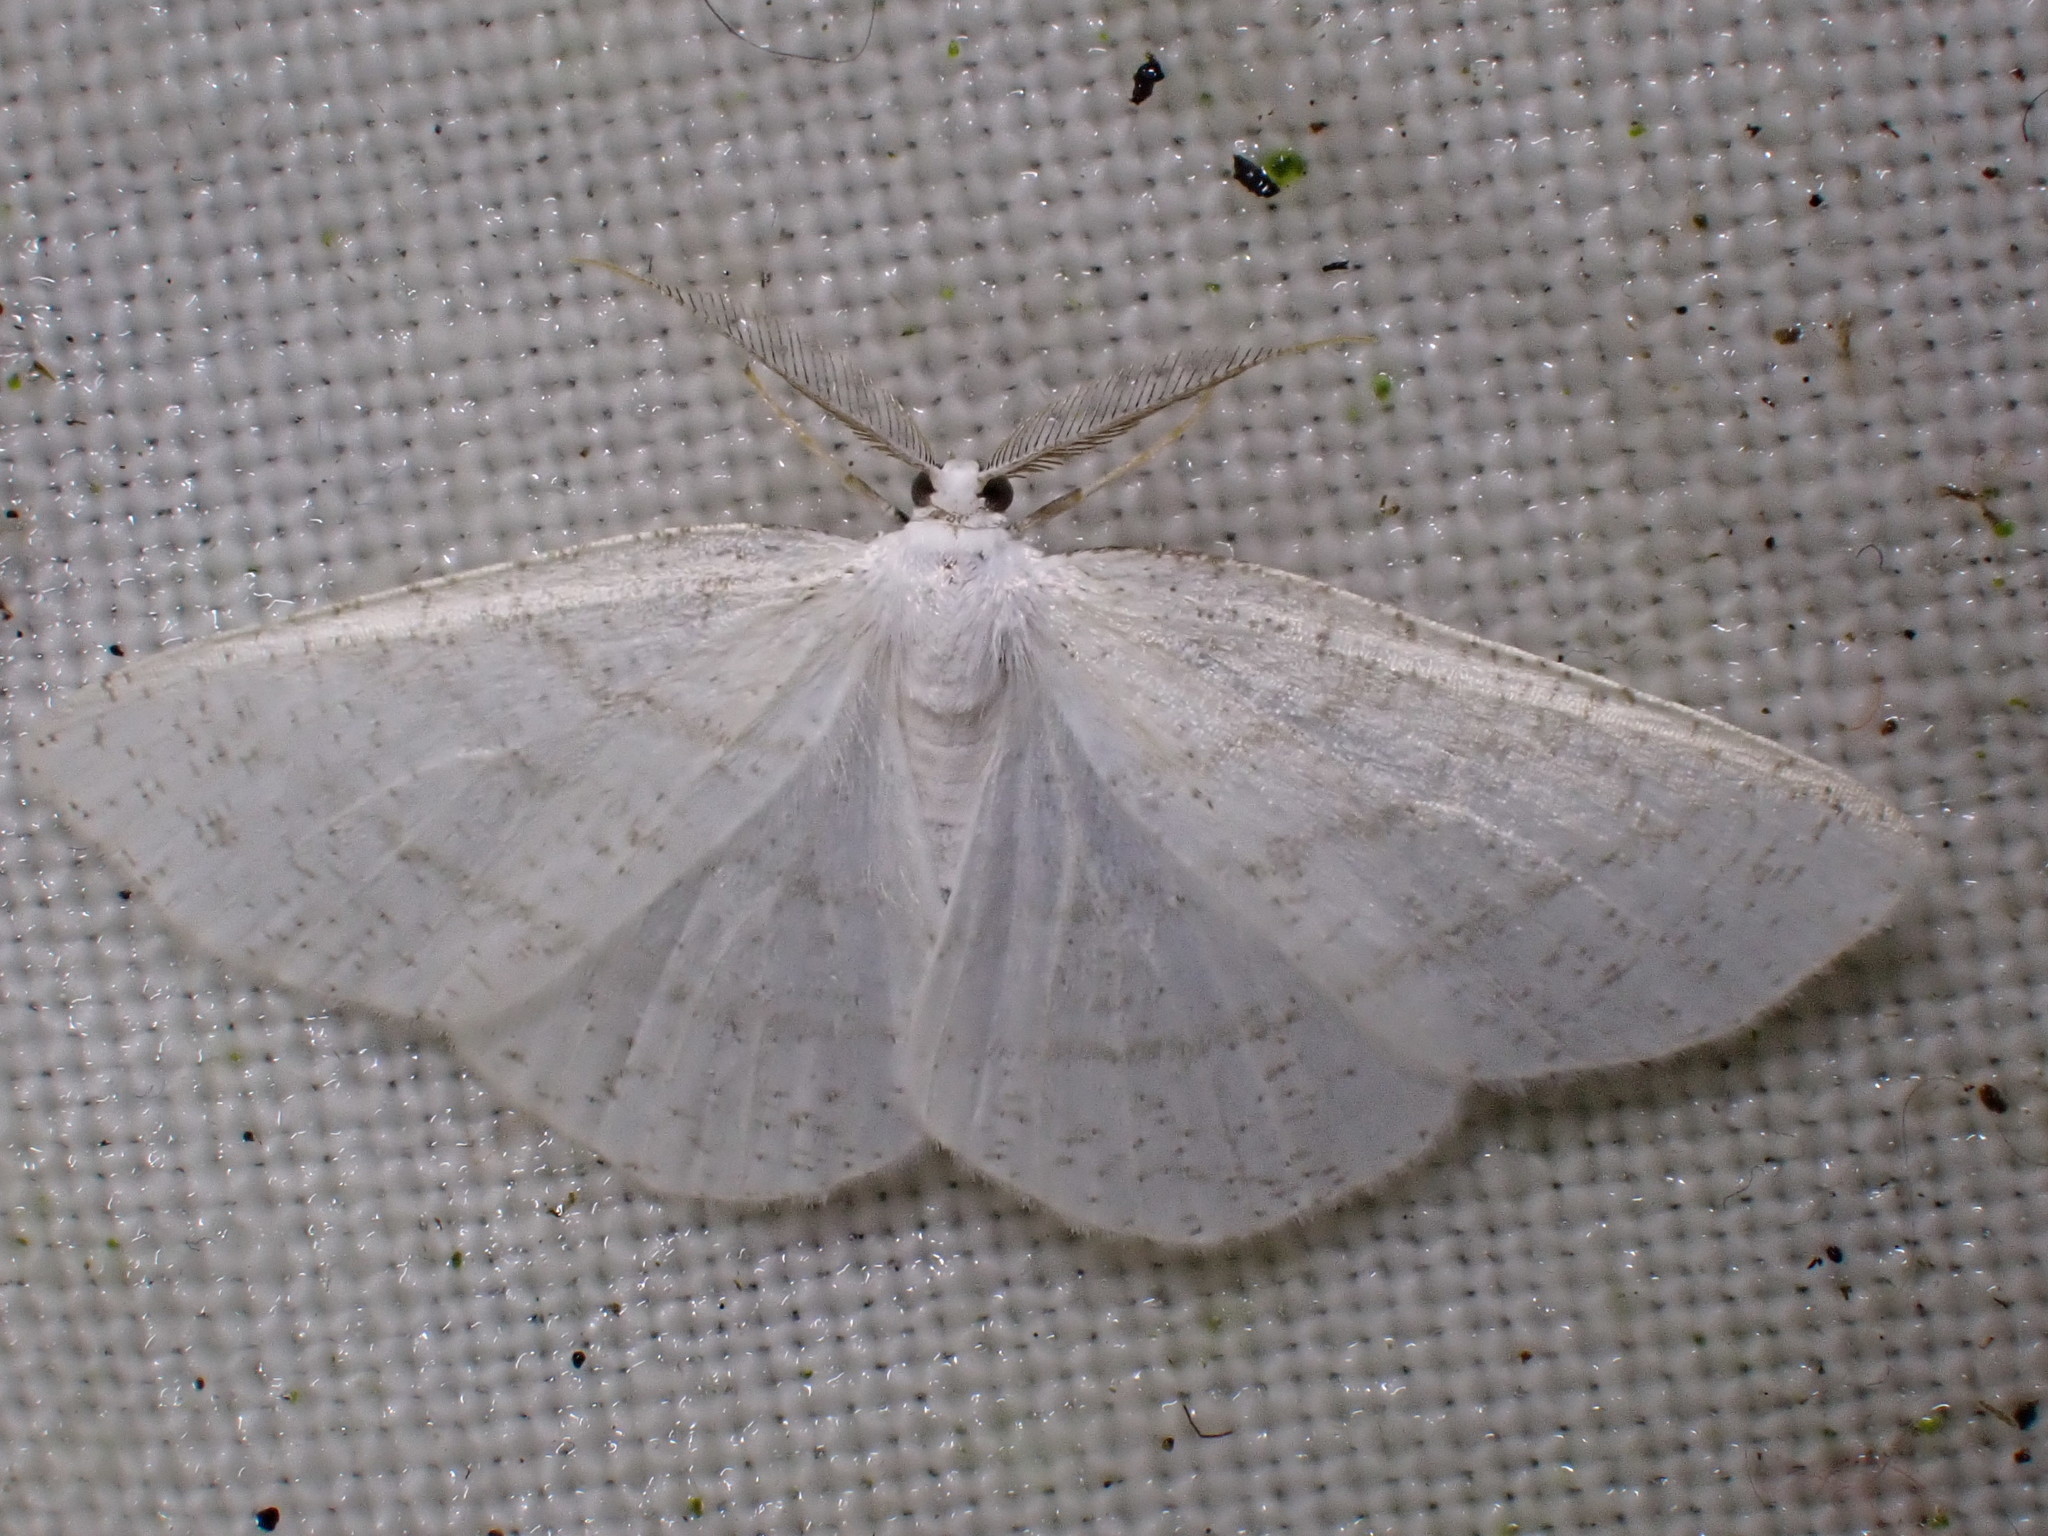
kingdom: Animalia
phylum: Arthropoda
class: Insecta
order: Lepidoptera
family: Geometridae
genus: Cabera
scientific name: Cabera pusaria
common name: Common white wave
